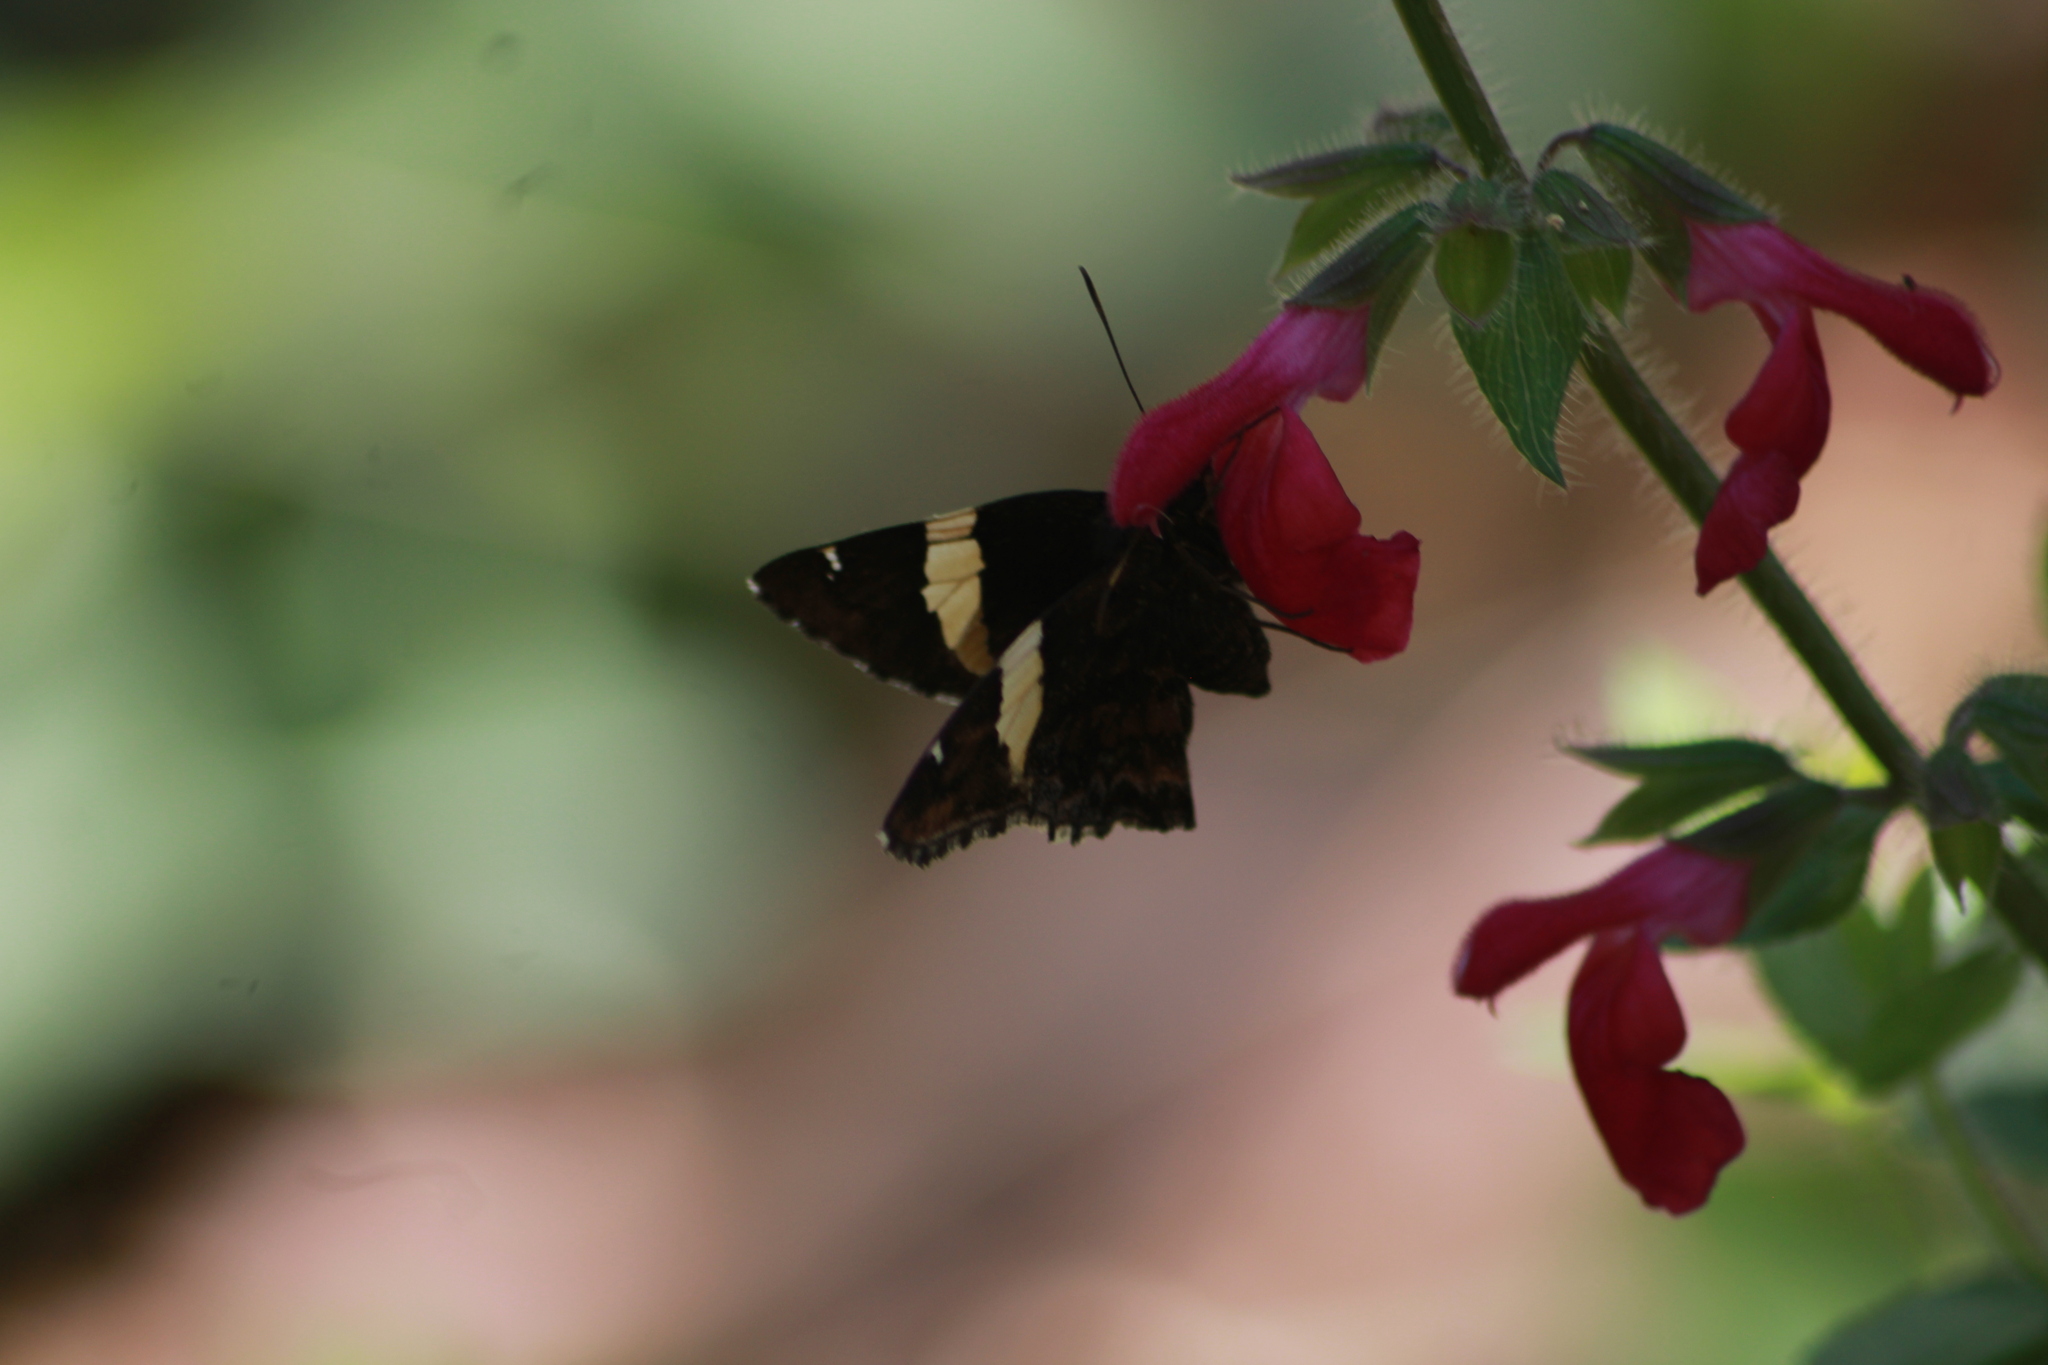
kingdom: Animalia
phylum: Arthropoda
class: Arachnida
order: Scorpiones
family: Bothriuridae
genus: Telegonus
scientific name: Telegonus cellus
